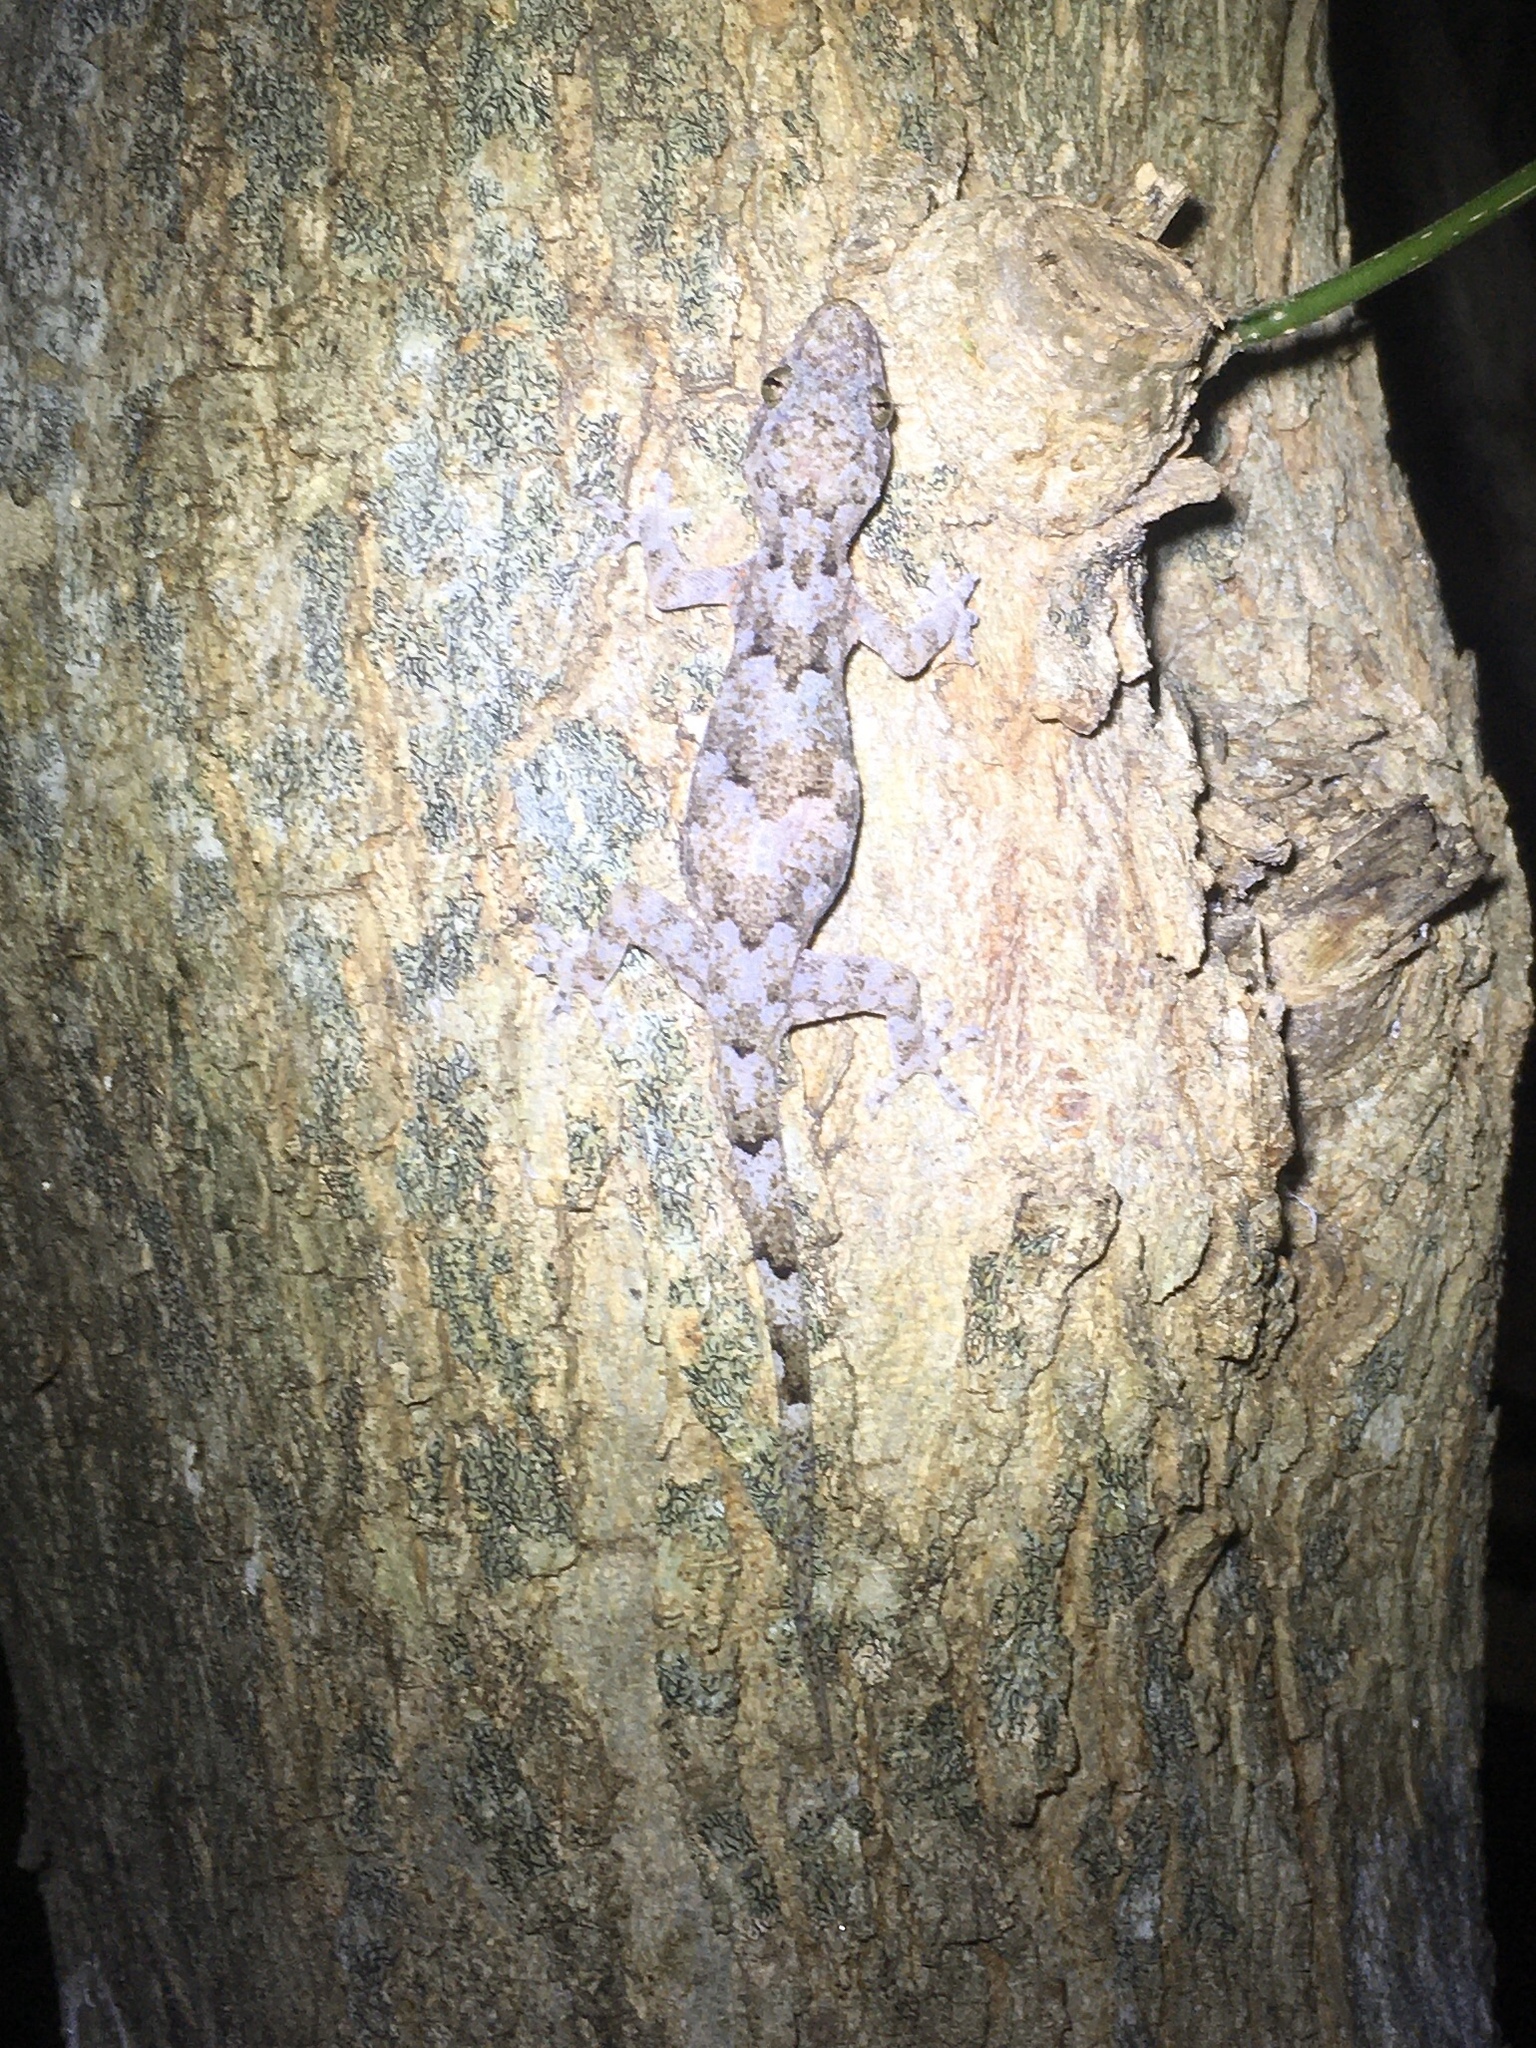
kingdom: Animalia
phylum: Chordata
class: Squamata
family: Gekkonidae
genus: Hemidactylus
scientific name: Hemidactylus mabouia
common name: House gecko
